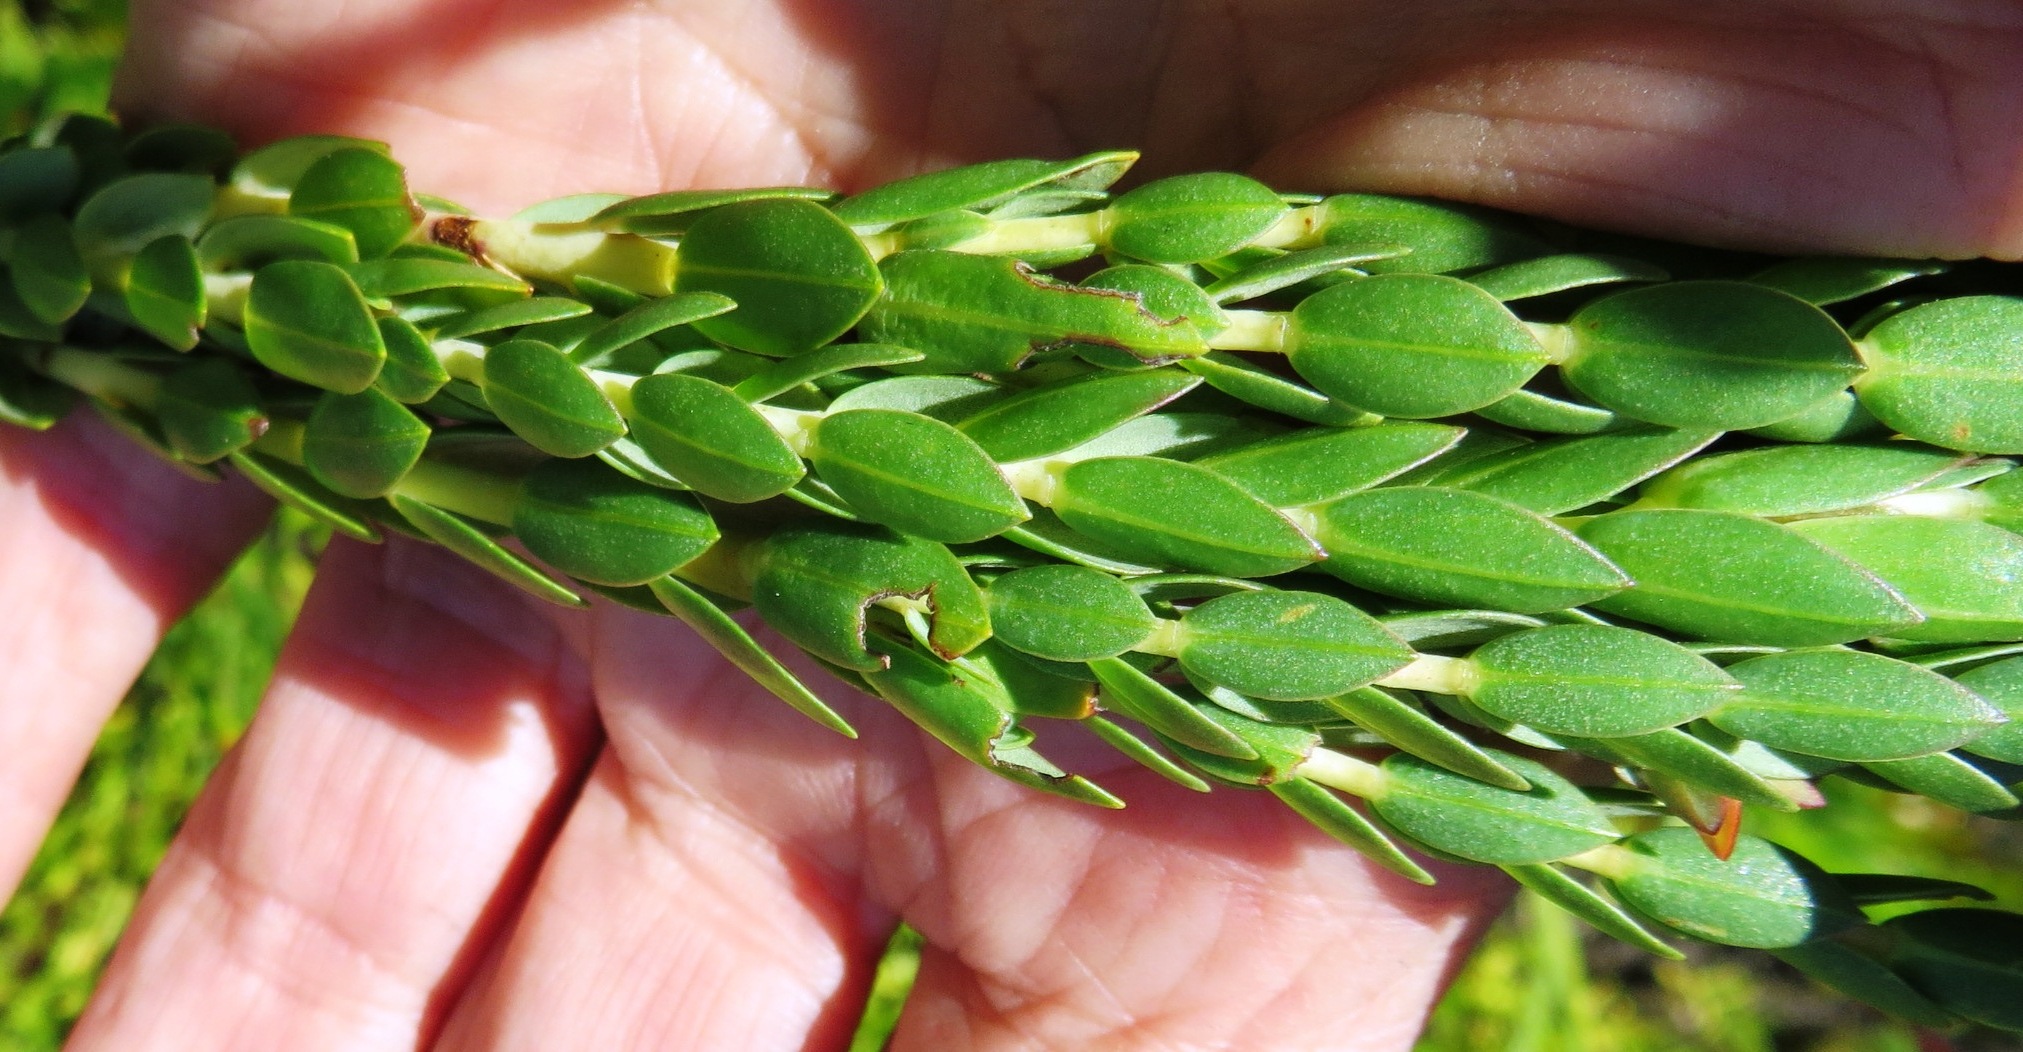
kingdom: Plantae
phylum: Tracheophyta
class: Magnoliopsida
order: Malvales
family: Thymelaeaceae
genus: Gnidia
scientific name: Gnidia oppositifolia
